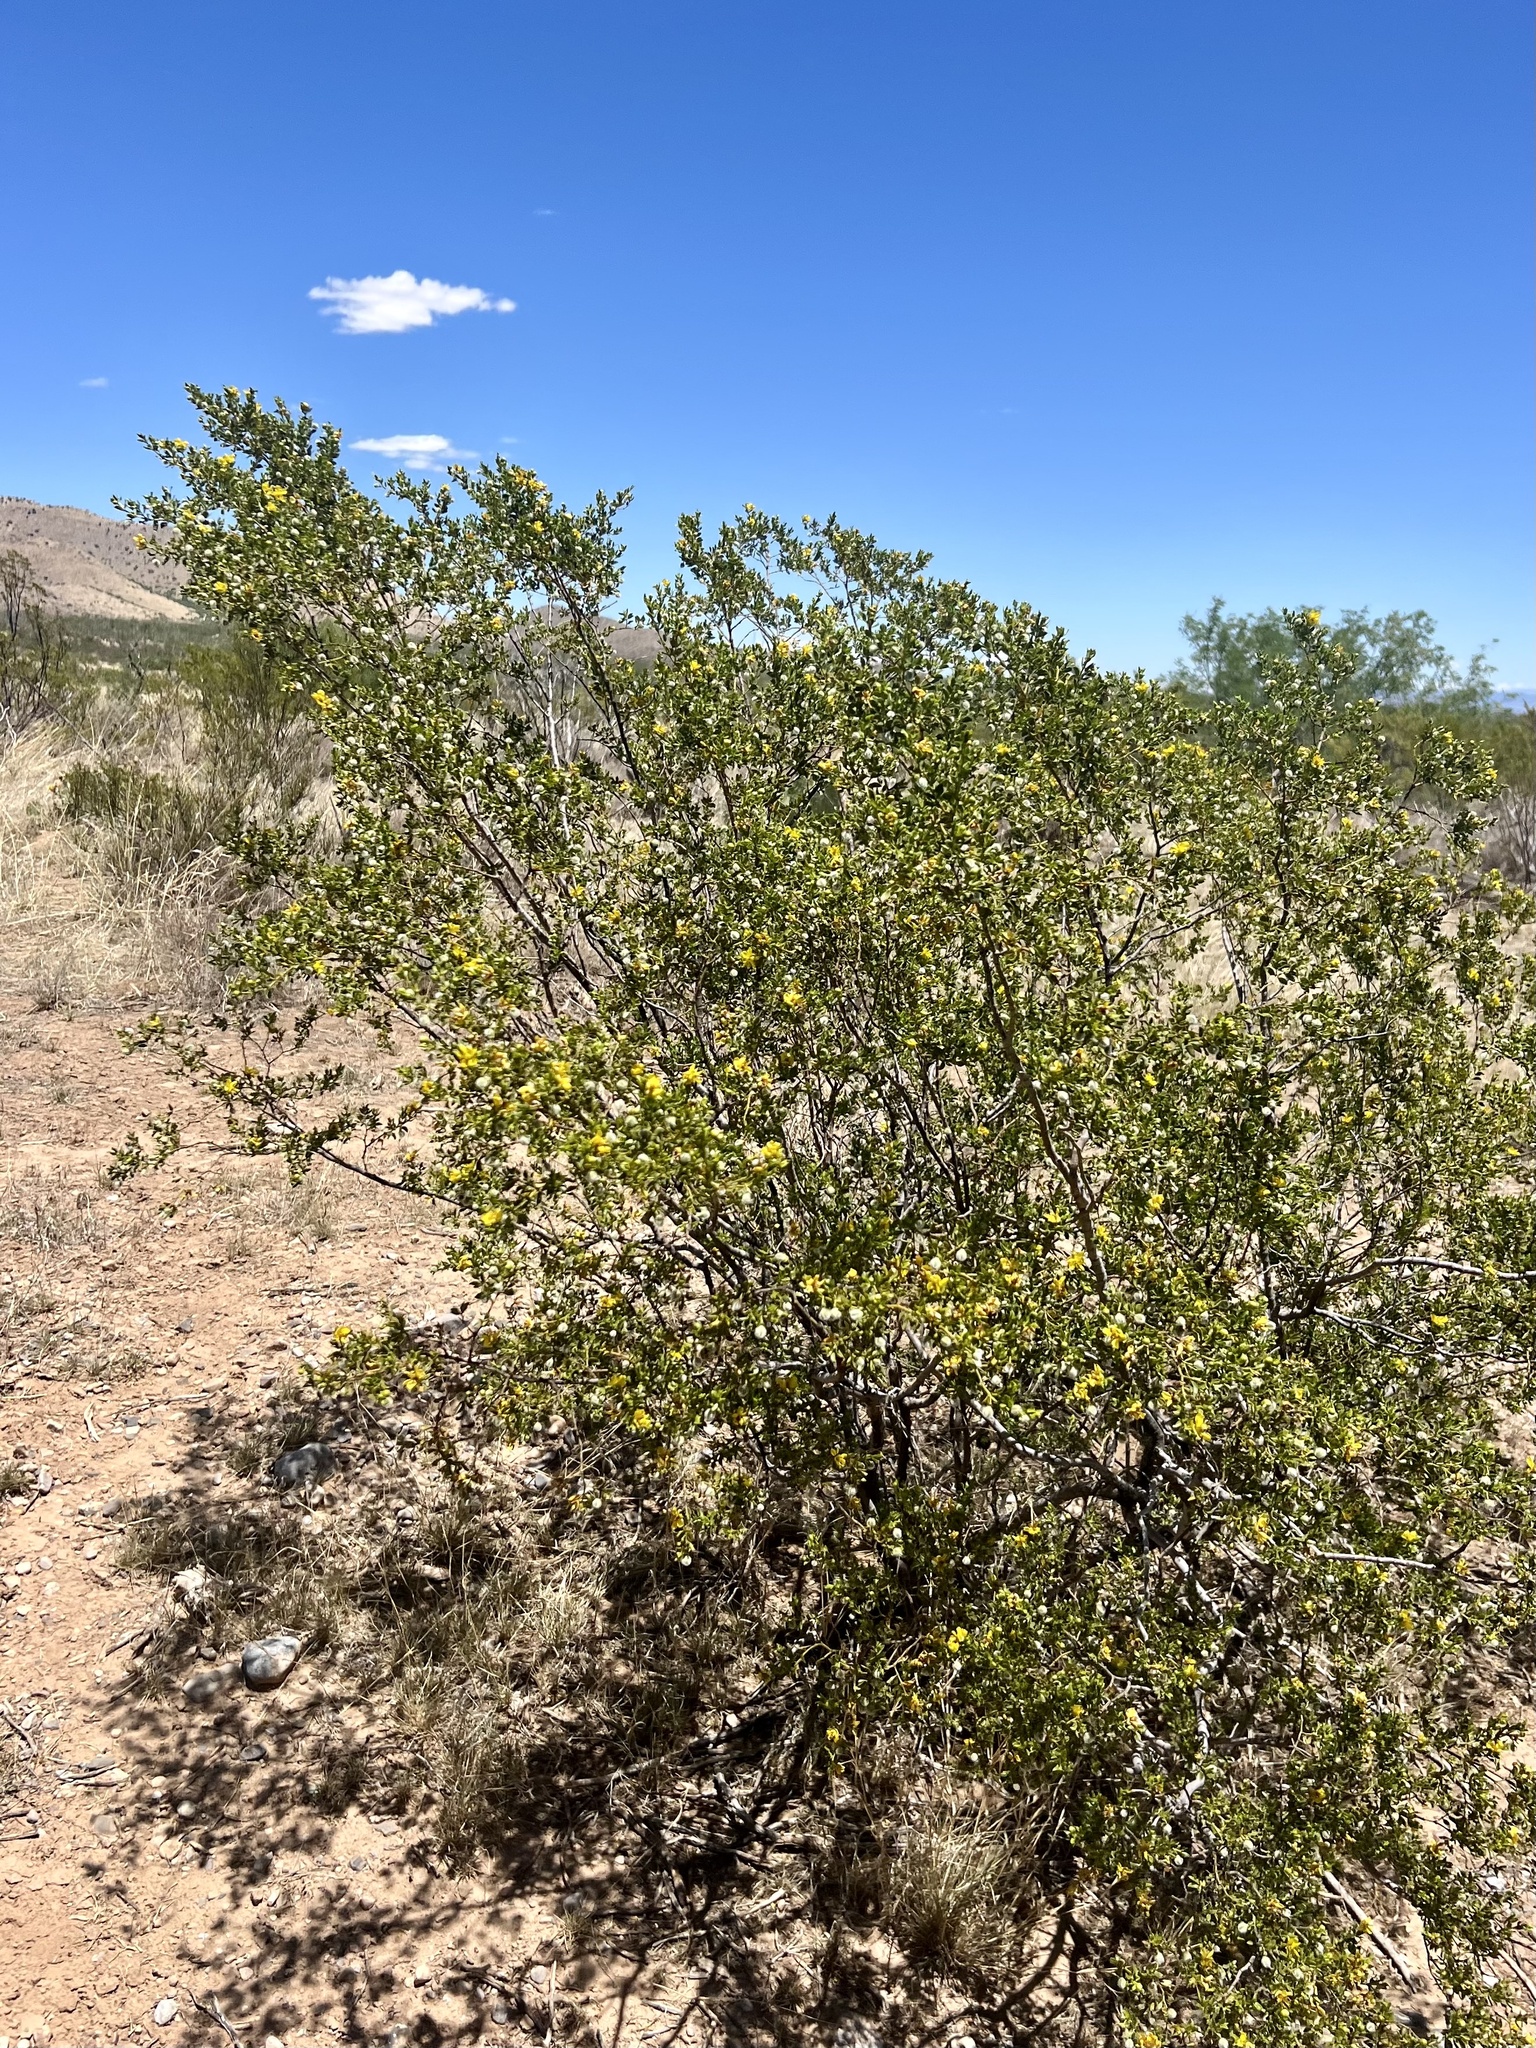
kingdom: Plantae
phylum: Tracheophyta
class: Magnoliopsida
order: Zygophyllales
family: Zygophyllaceae
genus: Larrea
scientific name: Larrea tridentata
